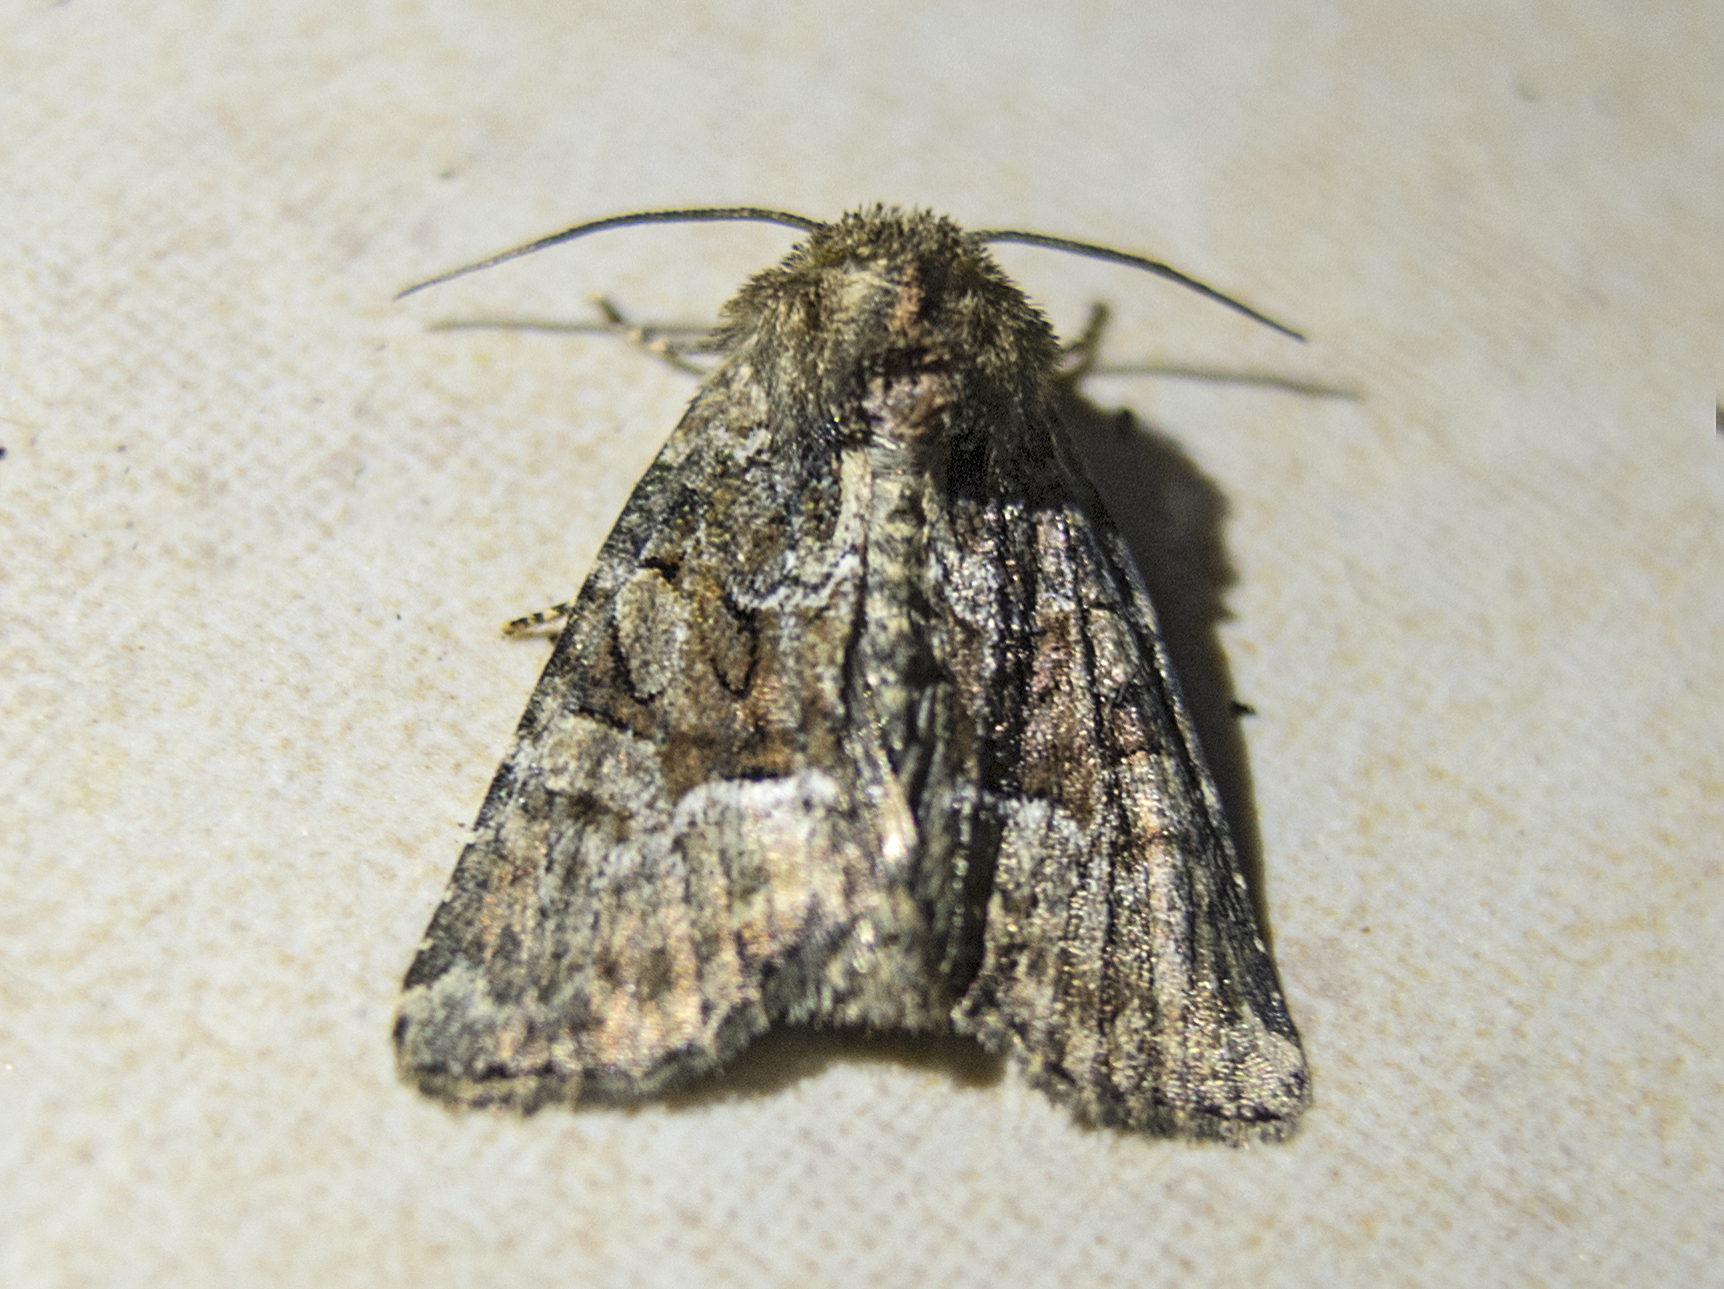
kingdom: Animalia
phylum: Arthropoda
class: Insecta
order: Lepidoptera
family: Noctuidae
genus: Oligia
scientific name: Oligia
